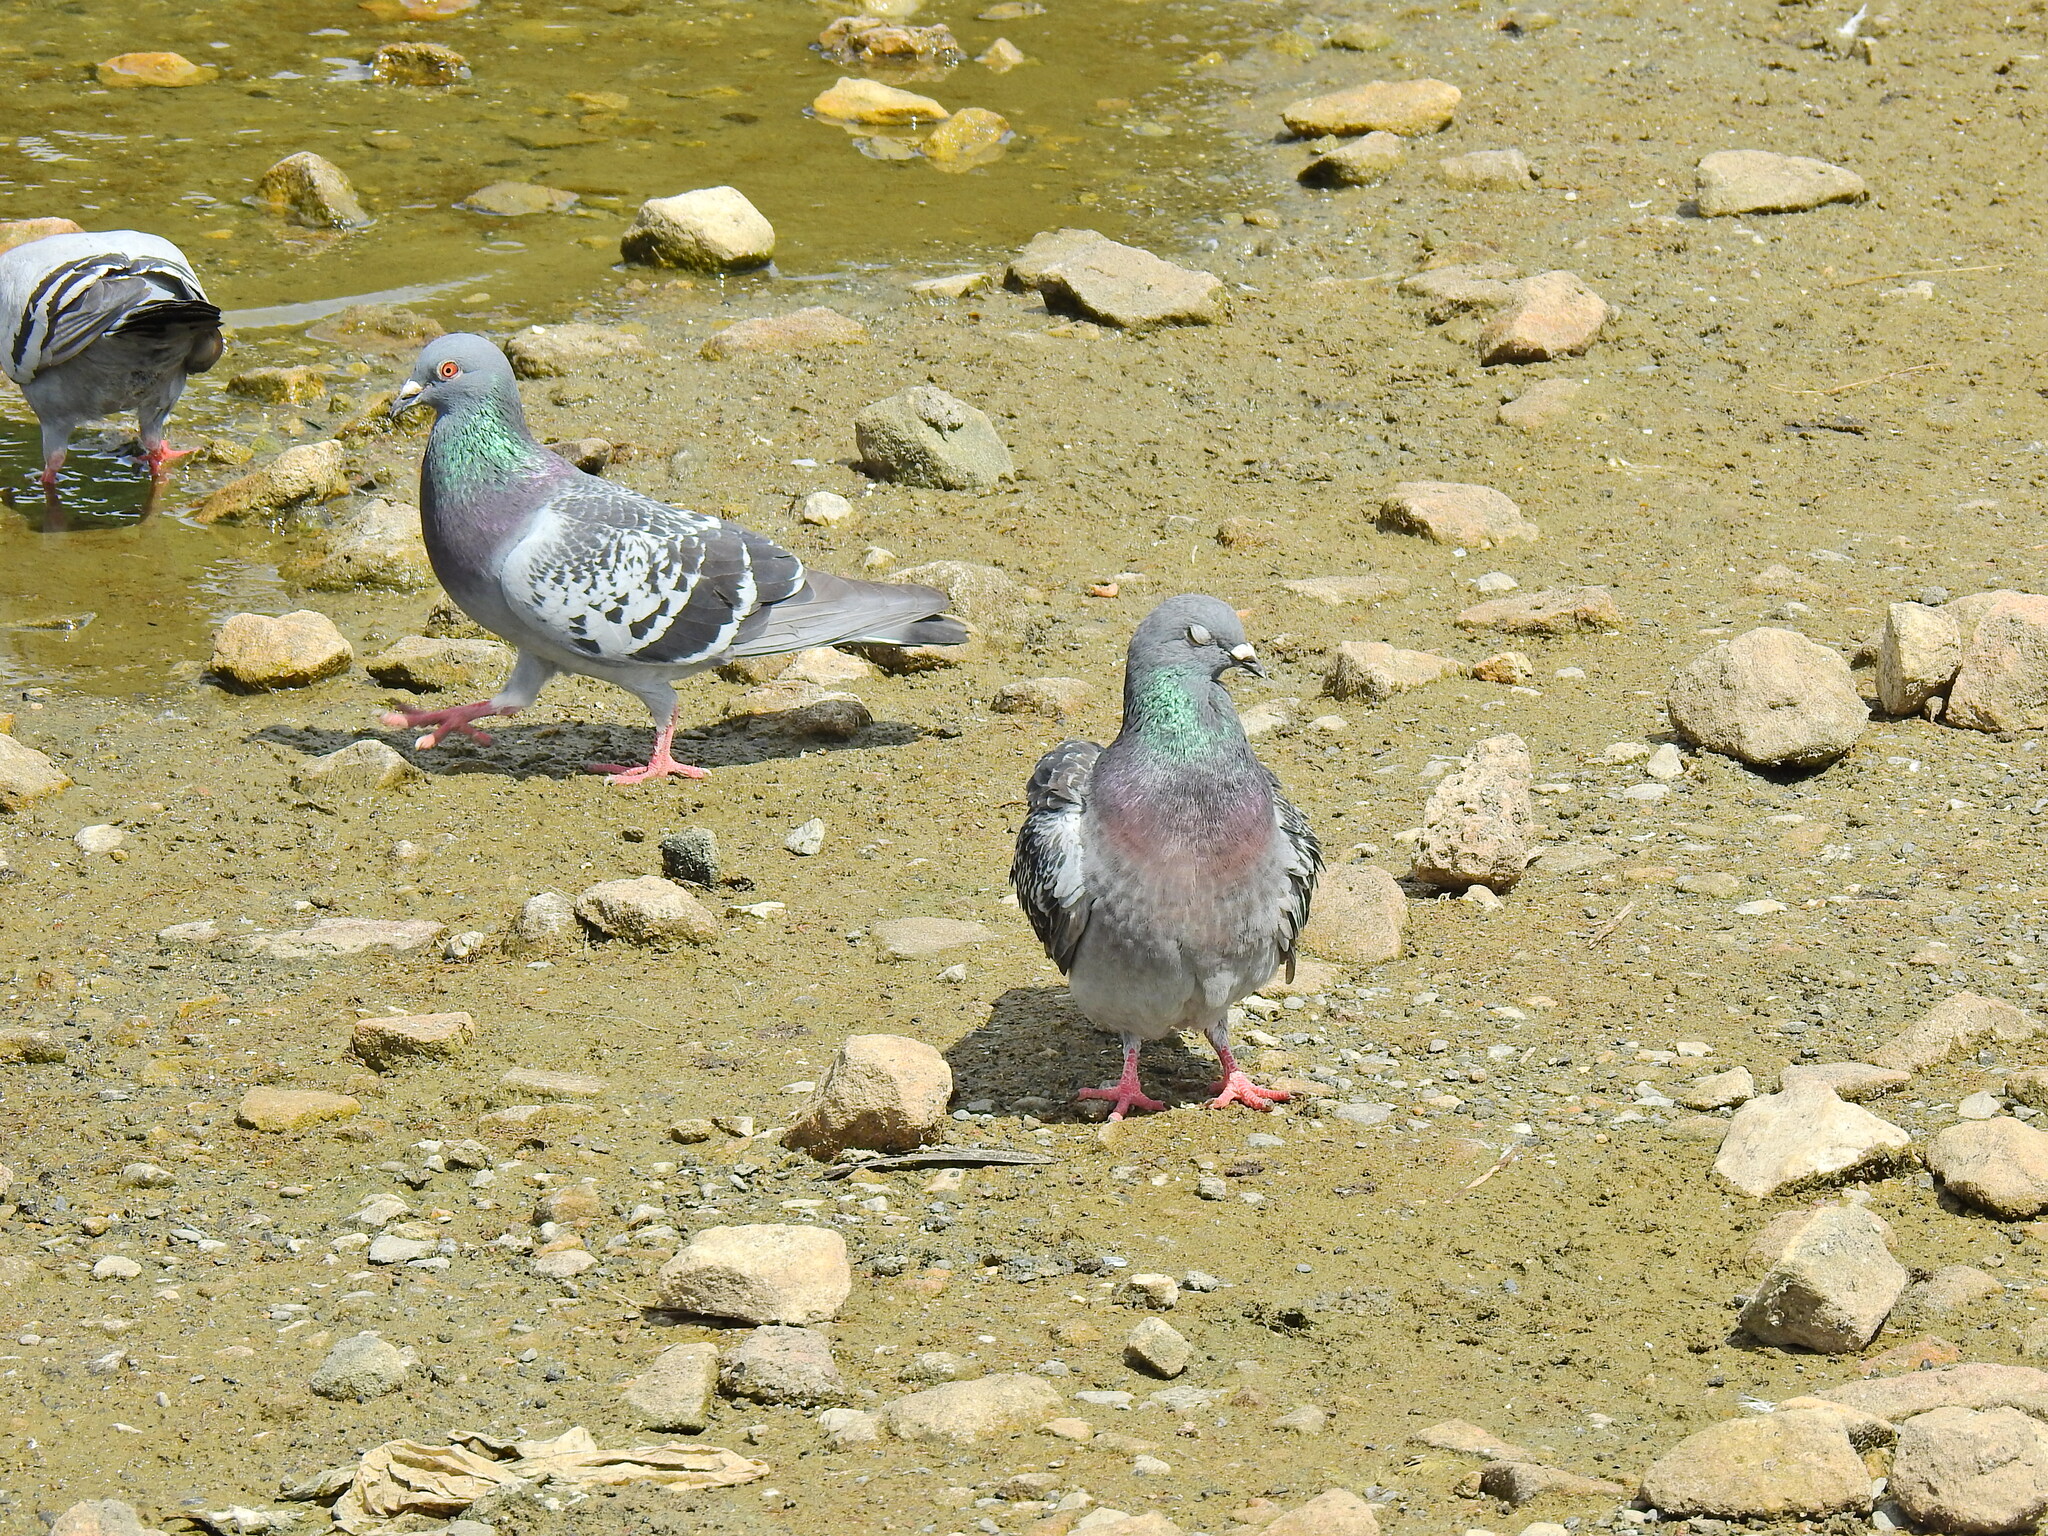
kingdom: Animalia
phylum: Chordata
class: Aves
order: Columbiformes
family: Columbidae
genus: Columba
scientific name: Columba livia
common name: Rock pigeon
